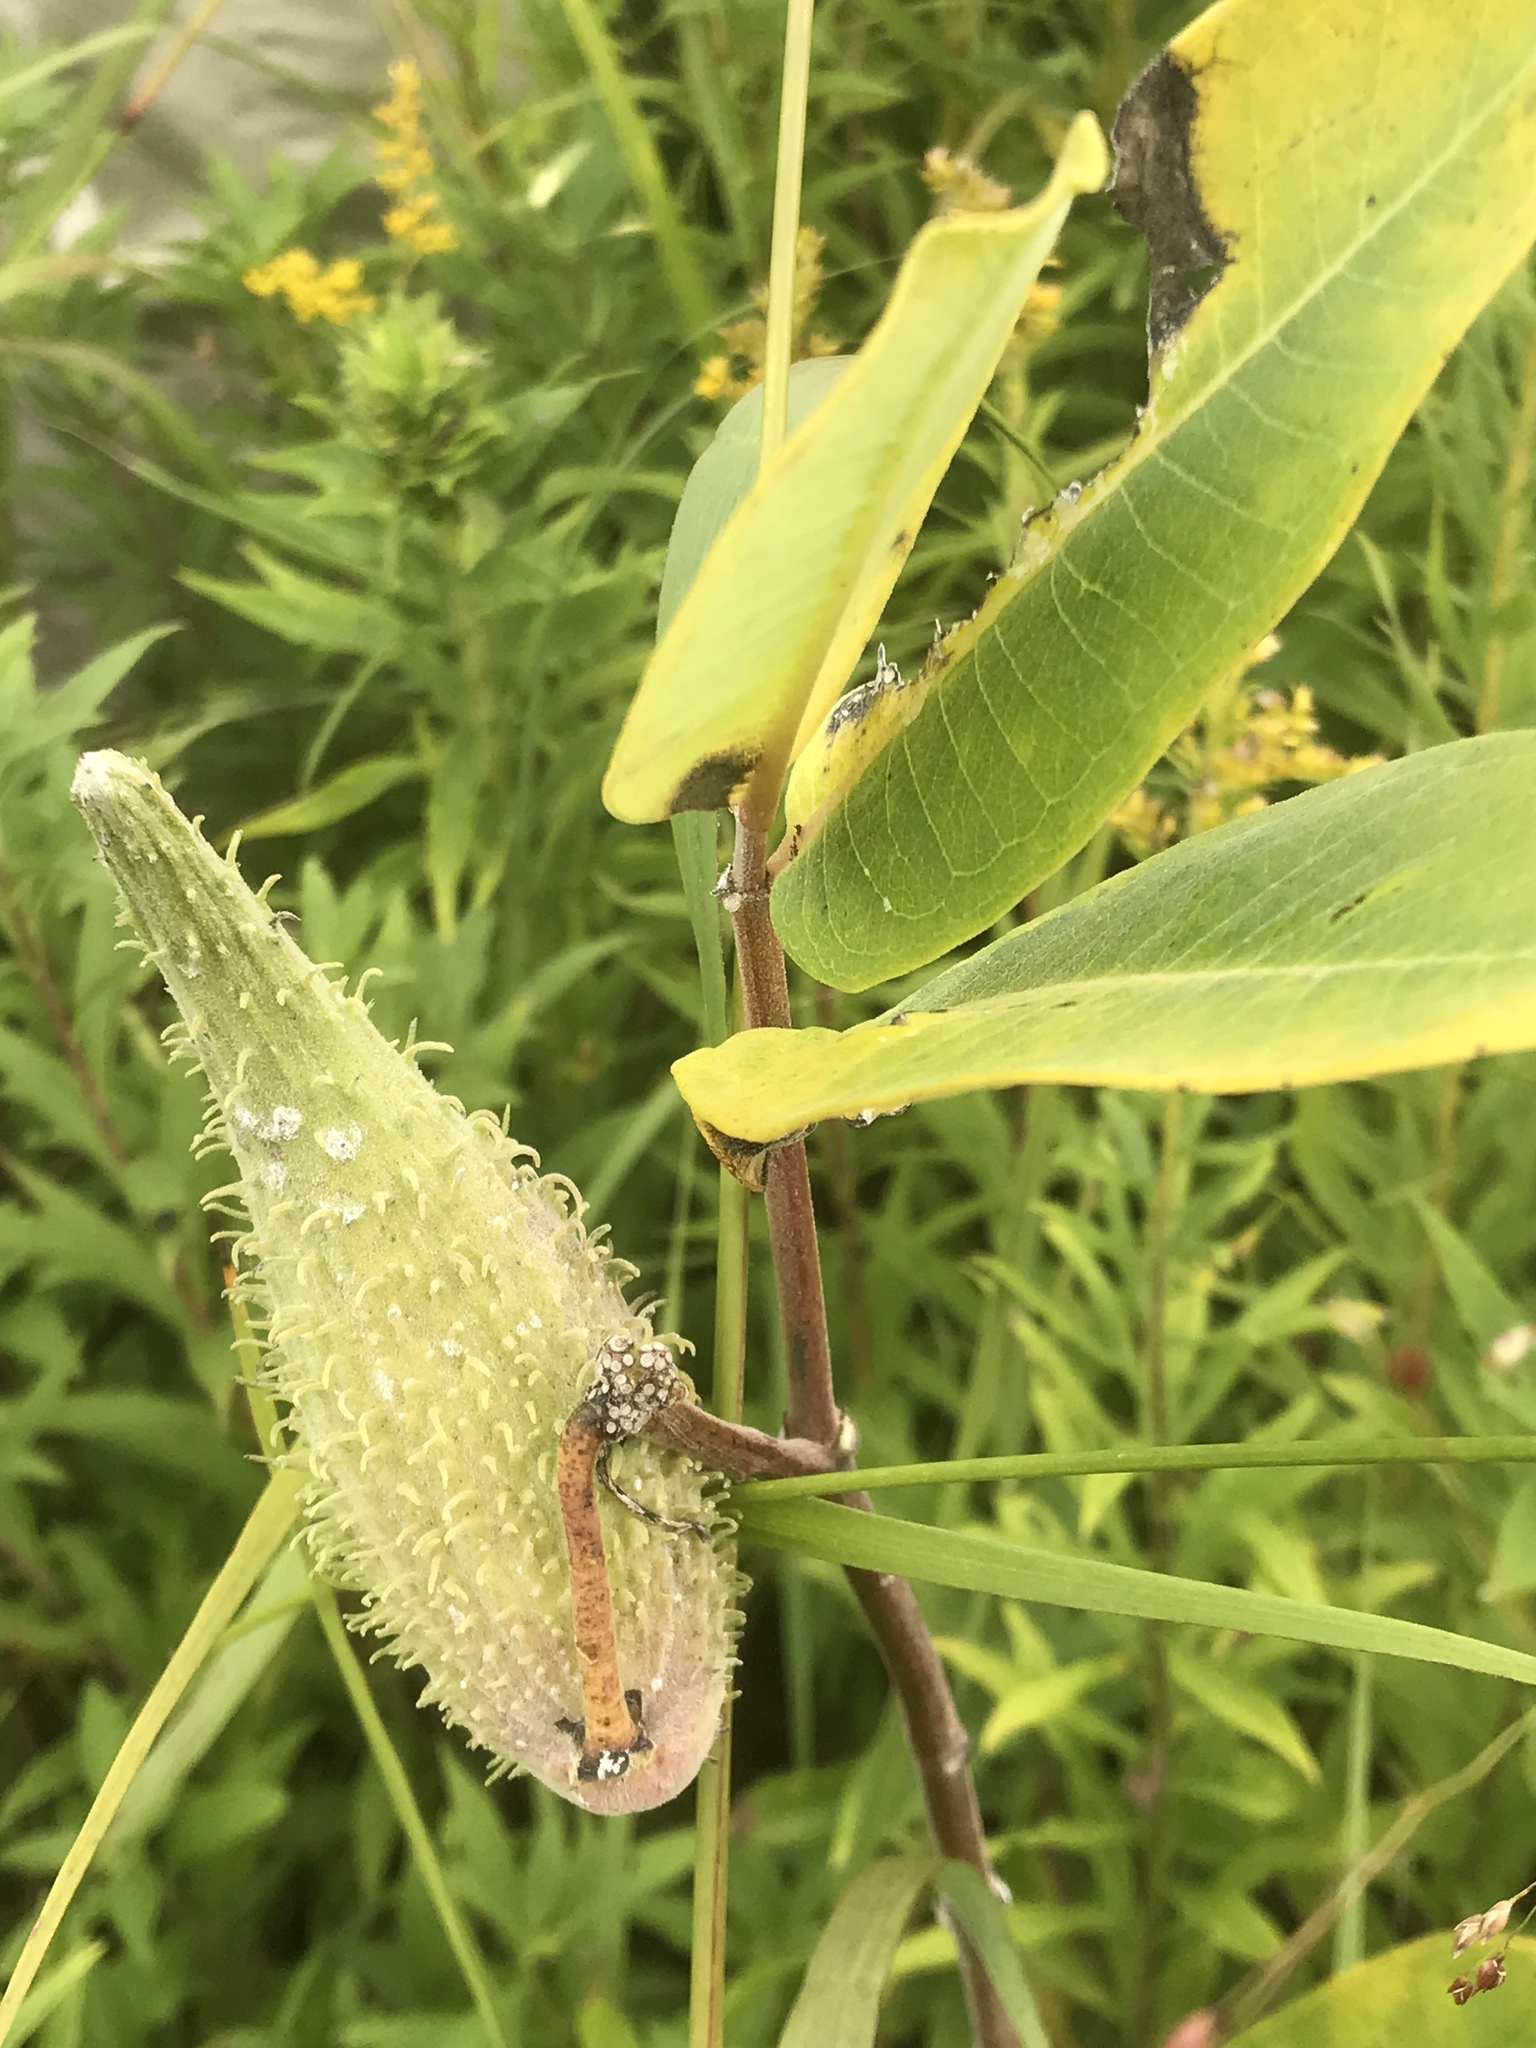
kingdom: Plantae
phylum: Tracheophyta
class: Magnoliopsida
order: Gentianales
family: Apocynaceae
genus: Asclepias
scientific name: Asclepias syriaca
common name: Common milkweed
